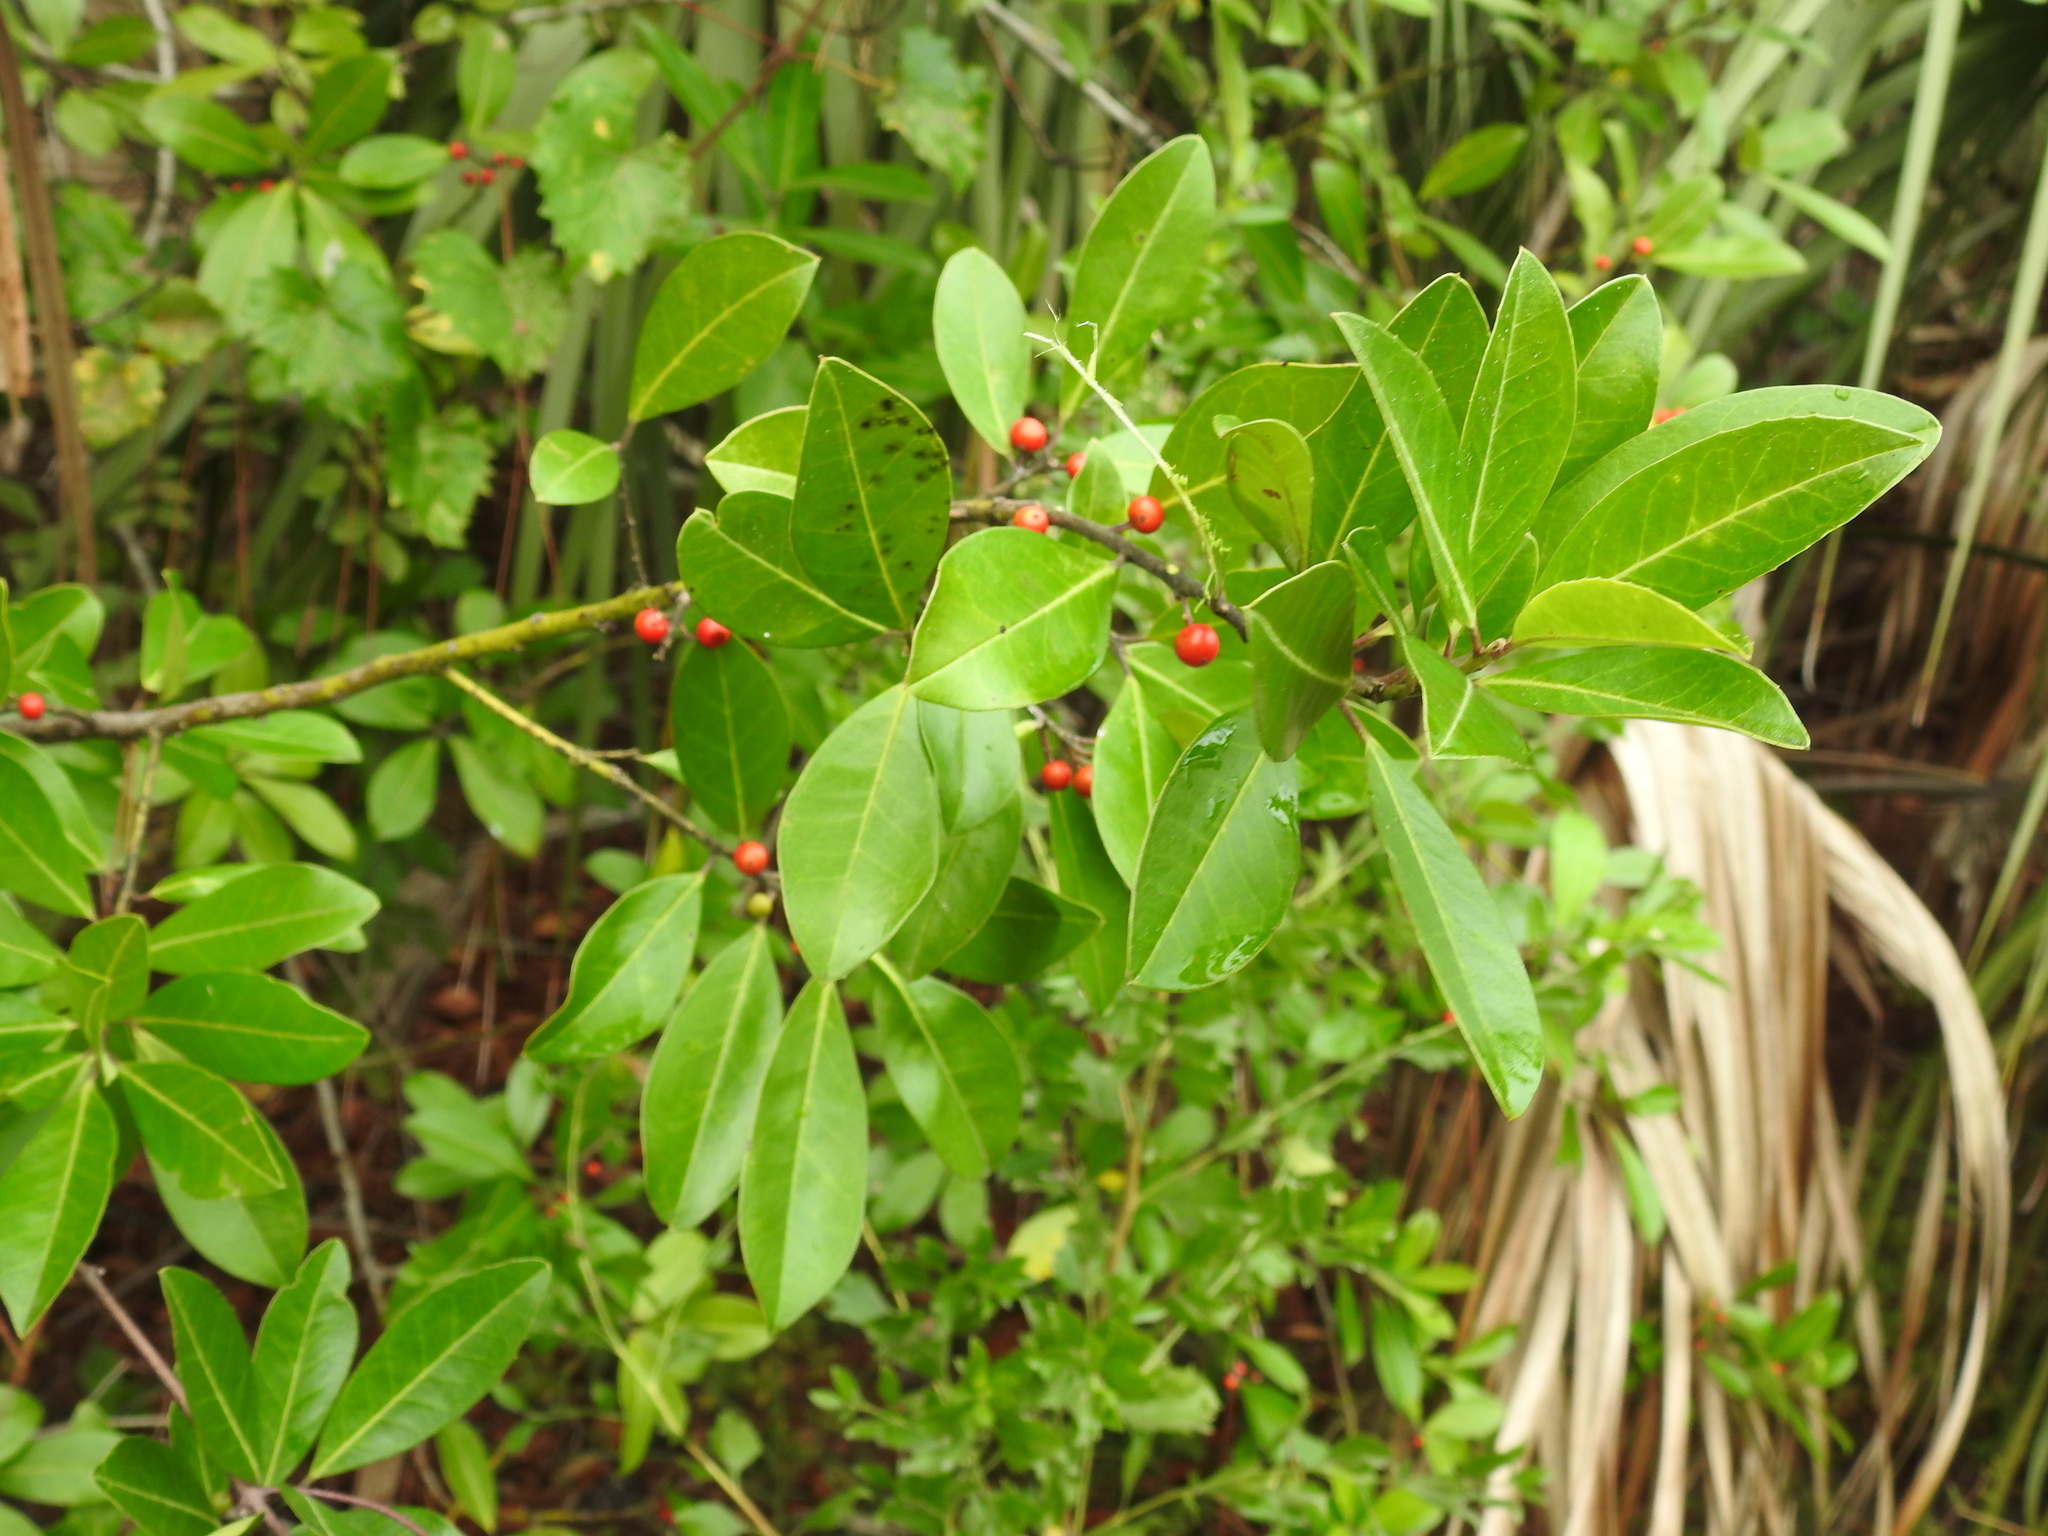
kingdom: Plantae
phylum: Tracheophyta
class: Magnoliopsida
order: Aquifoliales
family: Aquifoliaceae
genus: Ilex
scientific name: Ilex cassine
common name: Dahoon
